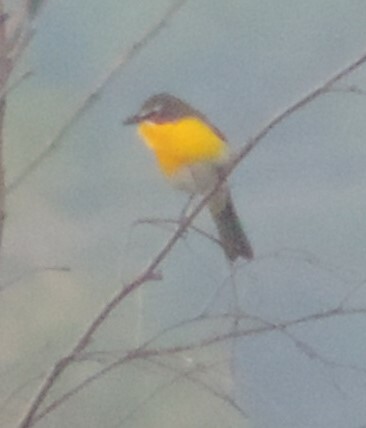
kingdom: Animalia
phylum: Chordata
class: Aves
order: Passeriformes
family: Parulidae
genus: Icteria
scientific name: Icteria virens
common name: Yellow-breasted chat
